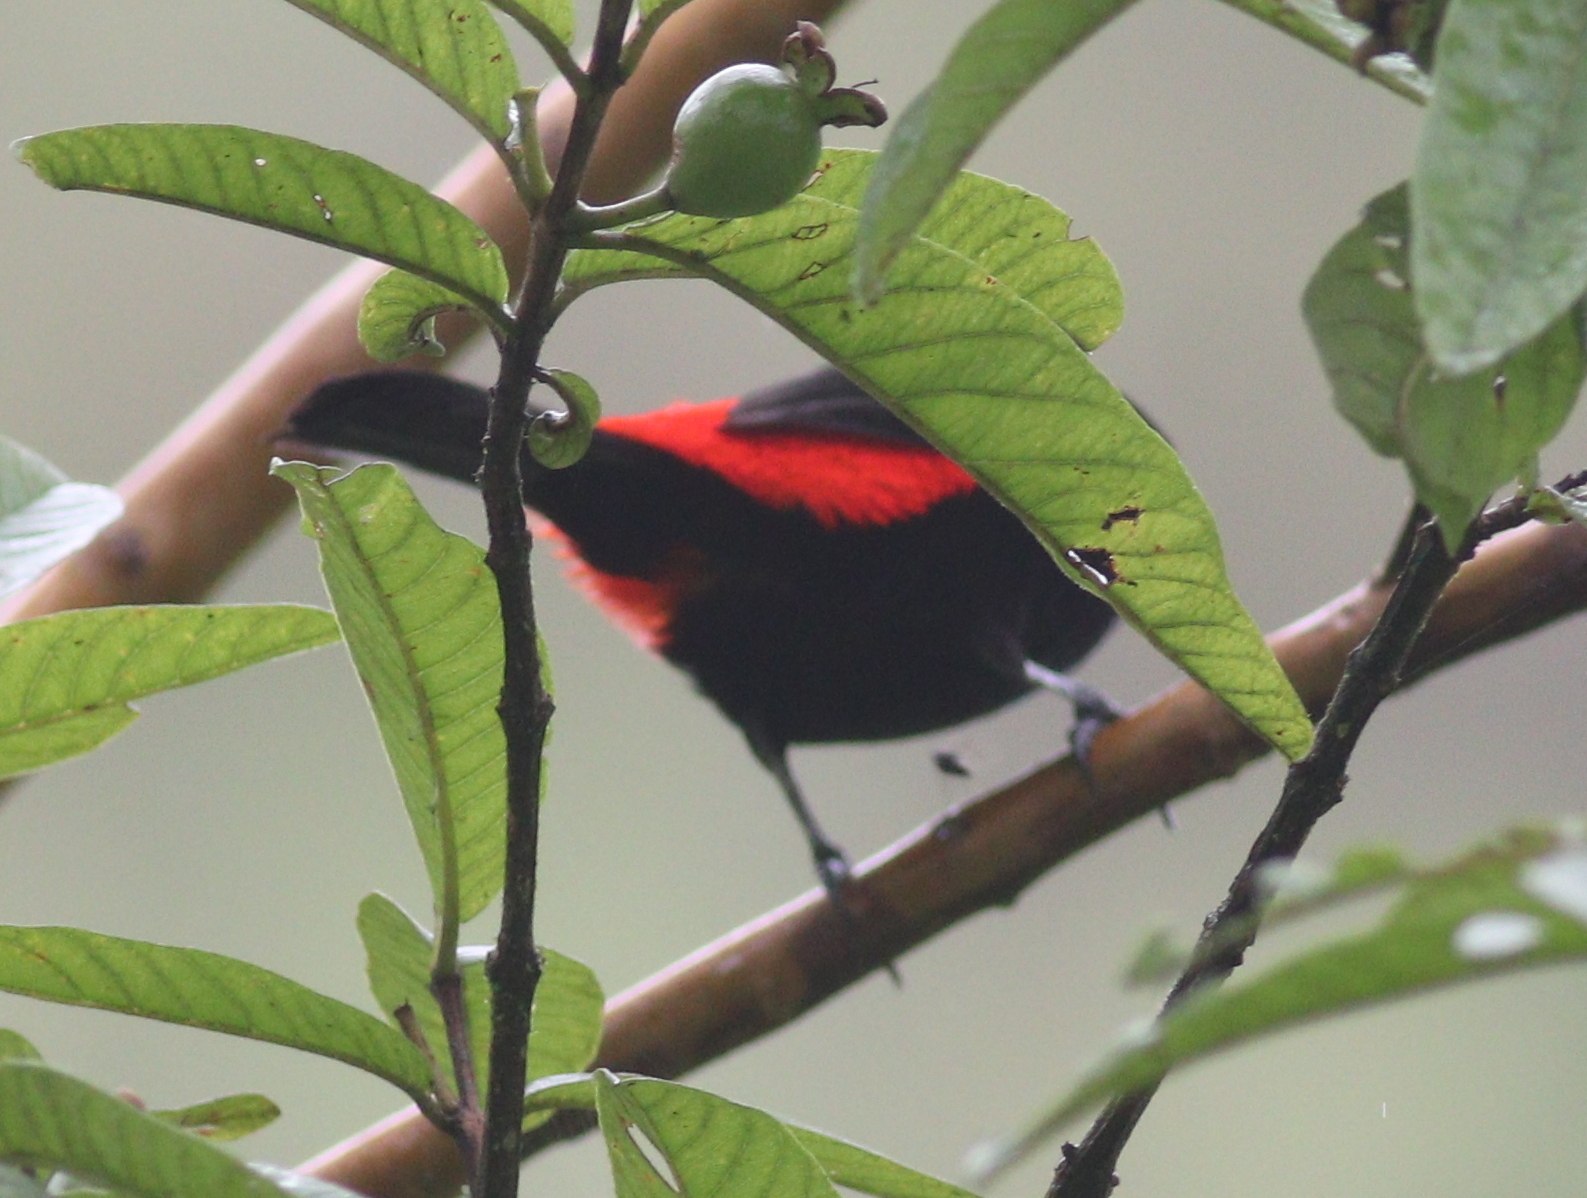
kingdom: Animalia
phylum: Chordata
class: Aves
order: Passeriformes
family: Thraupidae
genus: Ramphocelus
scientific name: Ramphocelus passerinii
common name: Passerini's tanager
